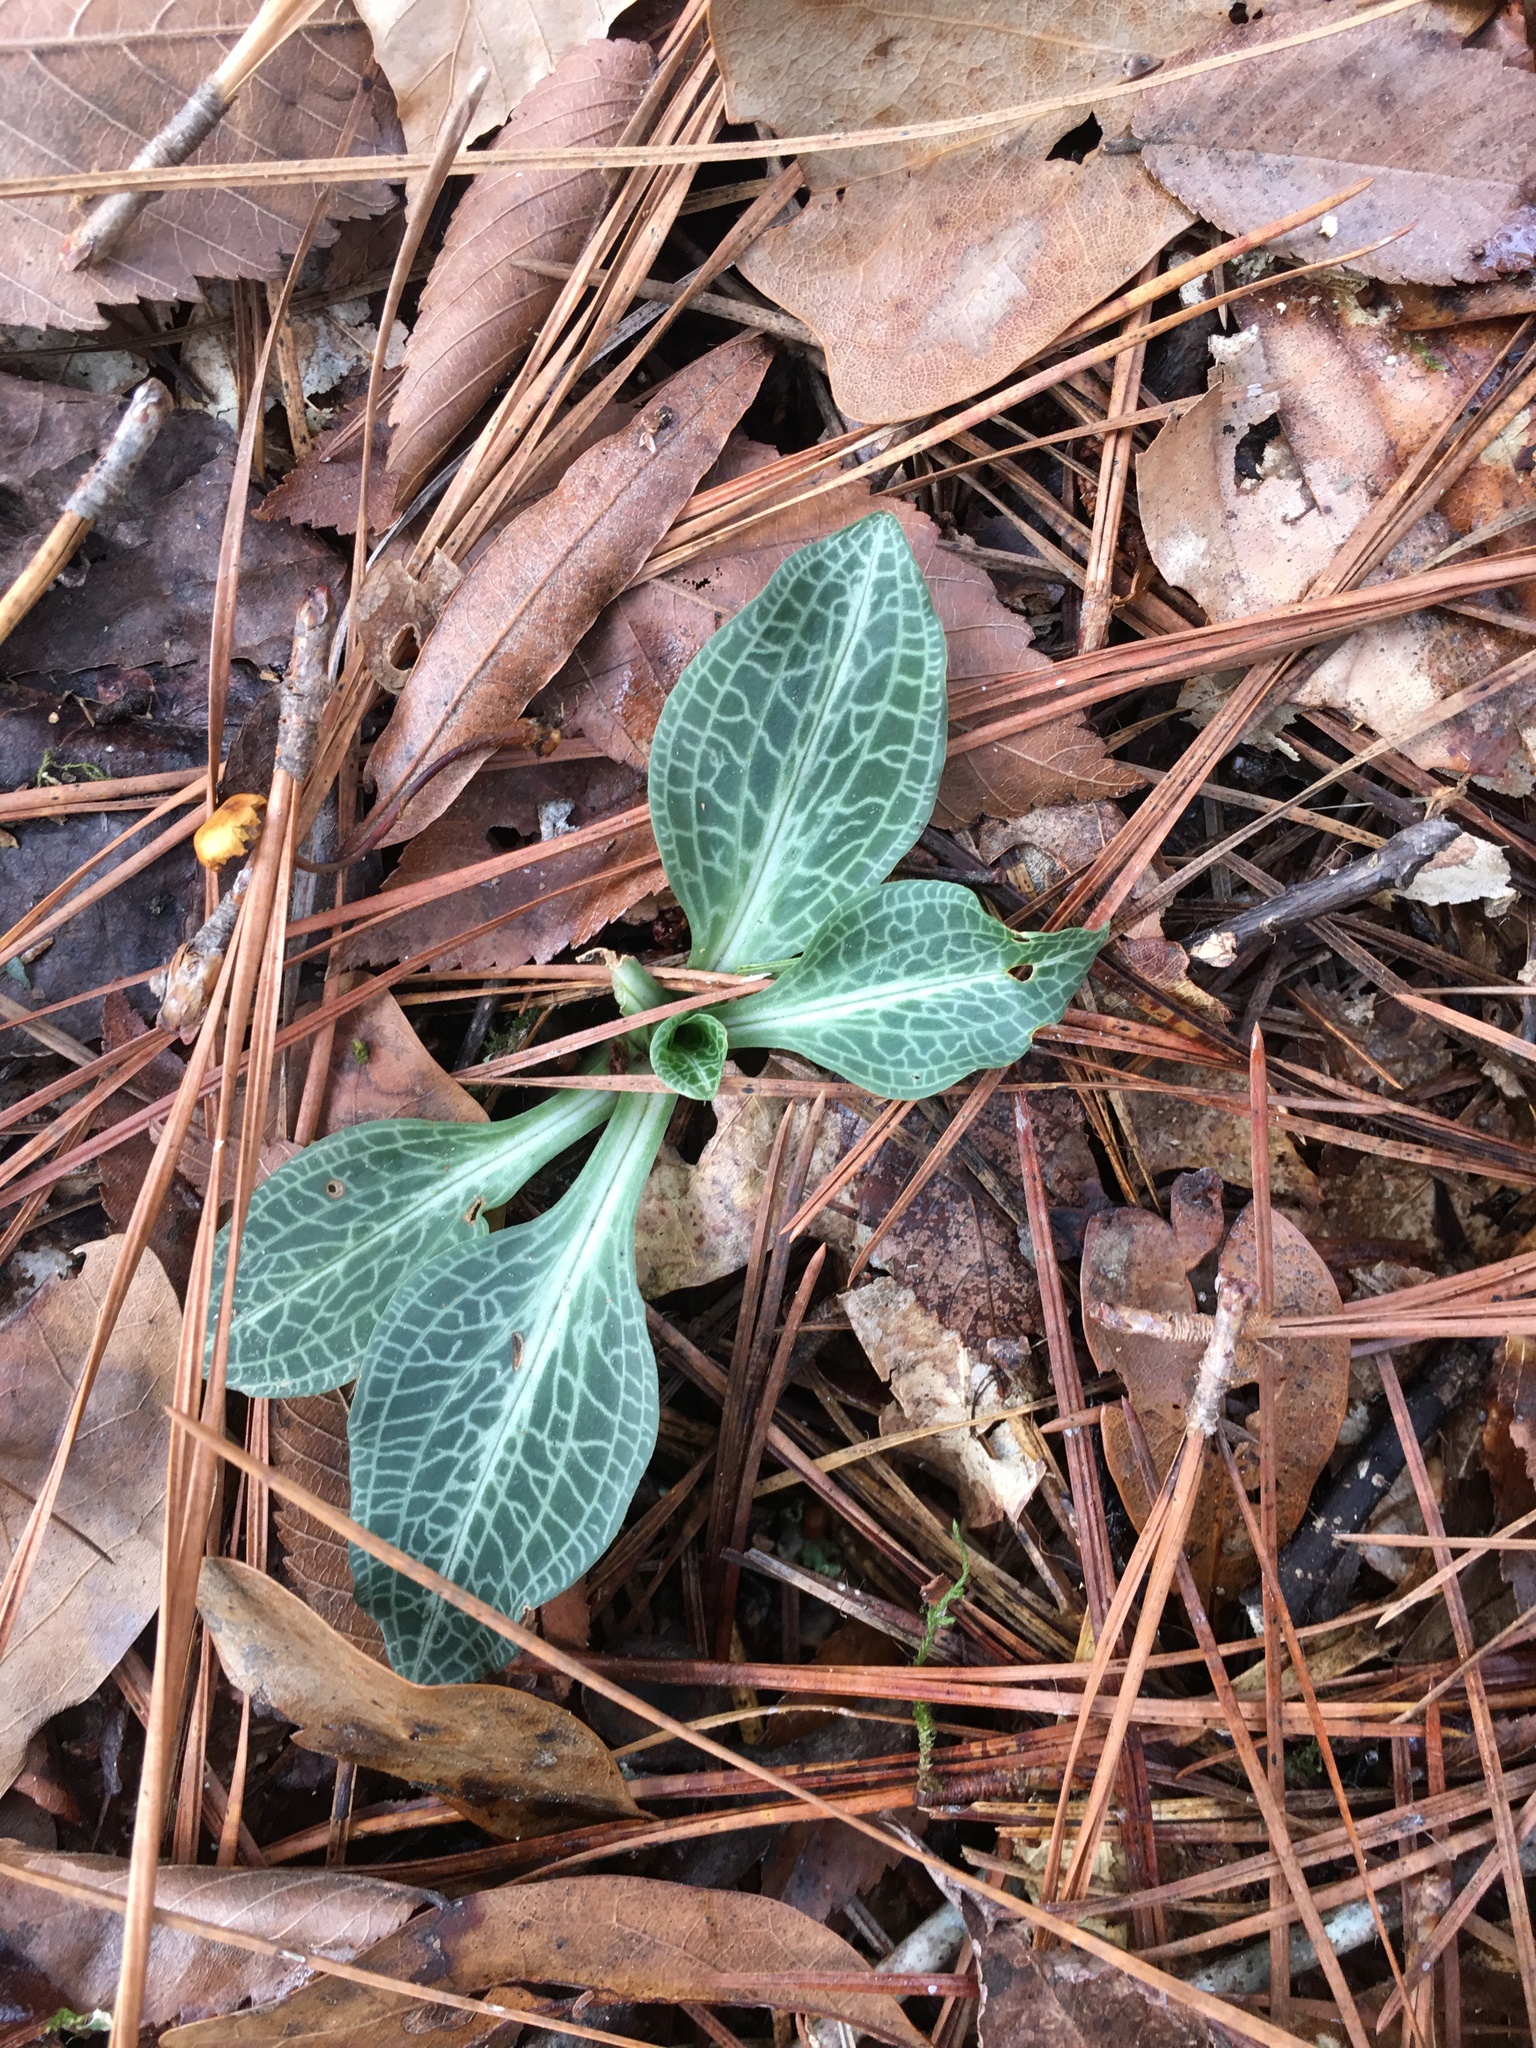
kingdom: Plantae
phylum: Tracheophyta
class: Liliopsida
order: Asparagales
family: Orchidaceae
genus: Goodyera
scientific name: Goodyera pubescens
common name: Downy rattlesnake-plantain
